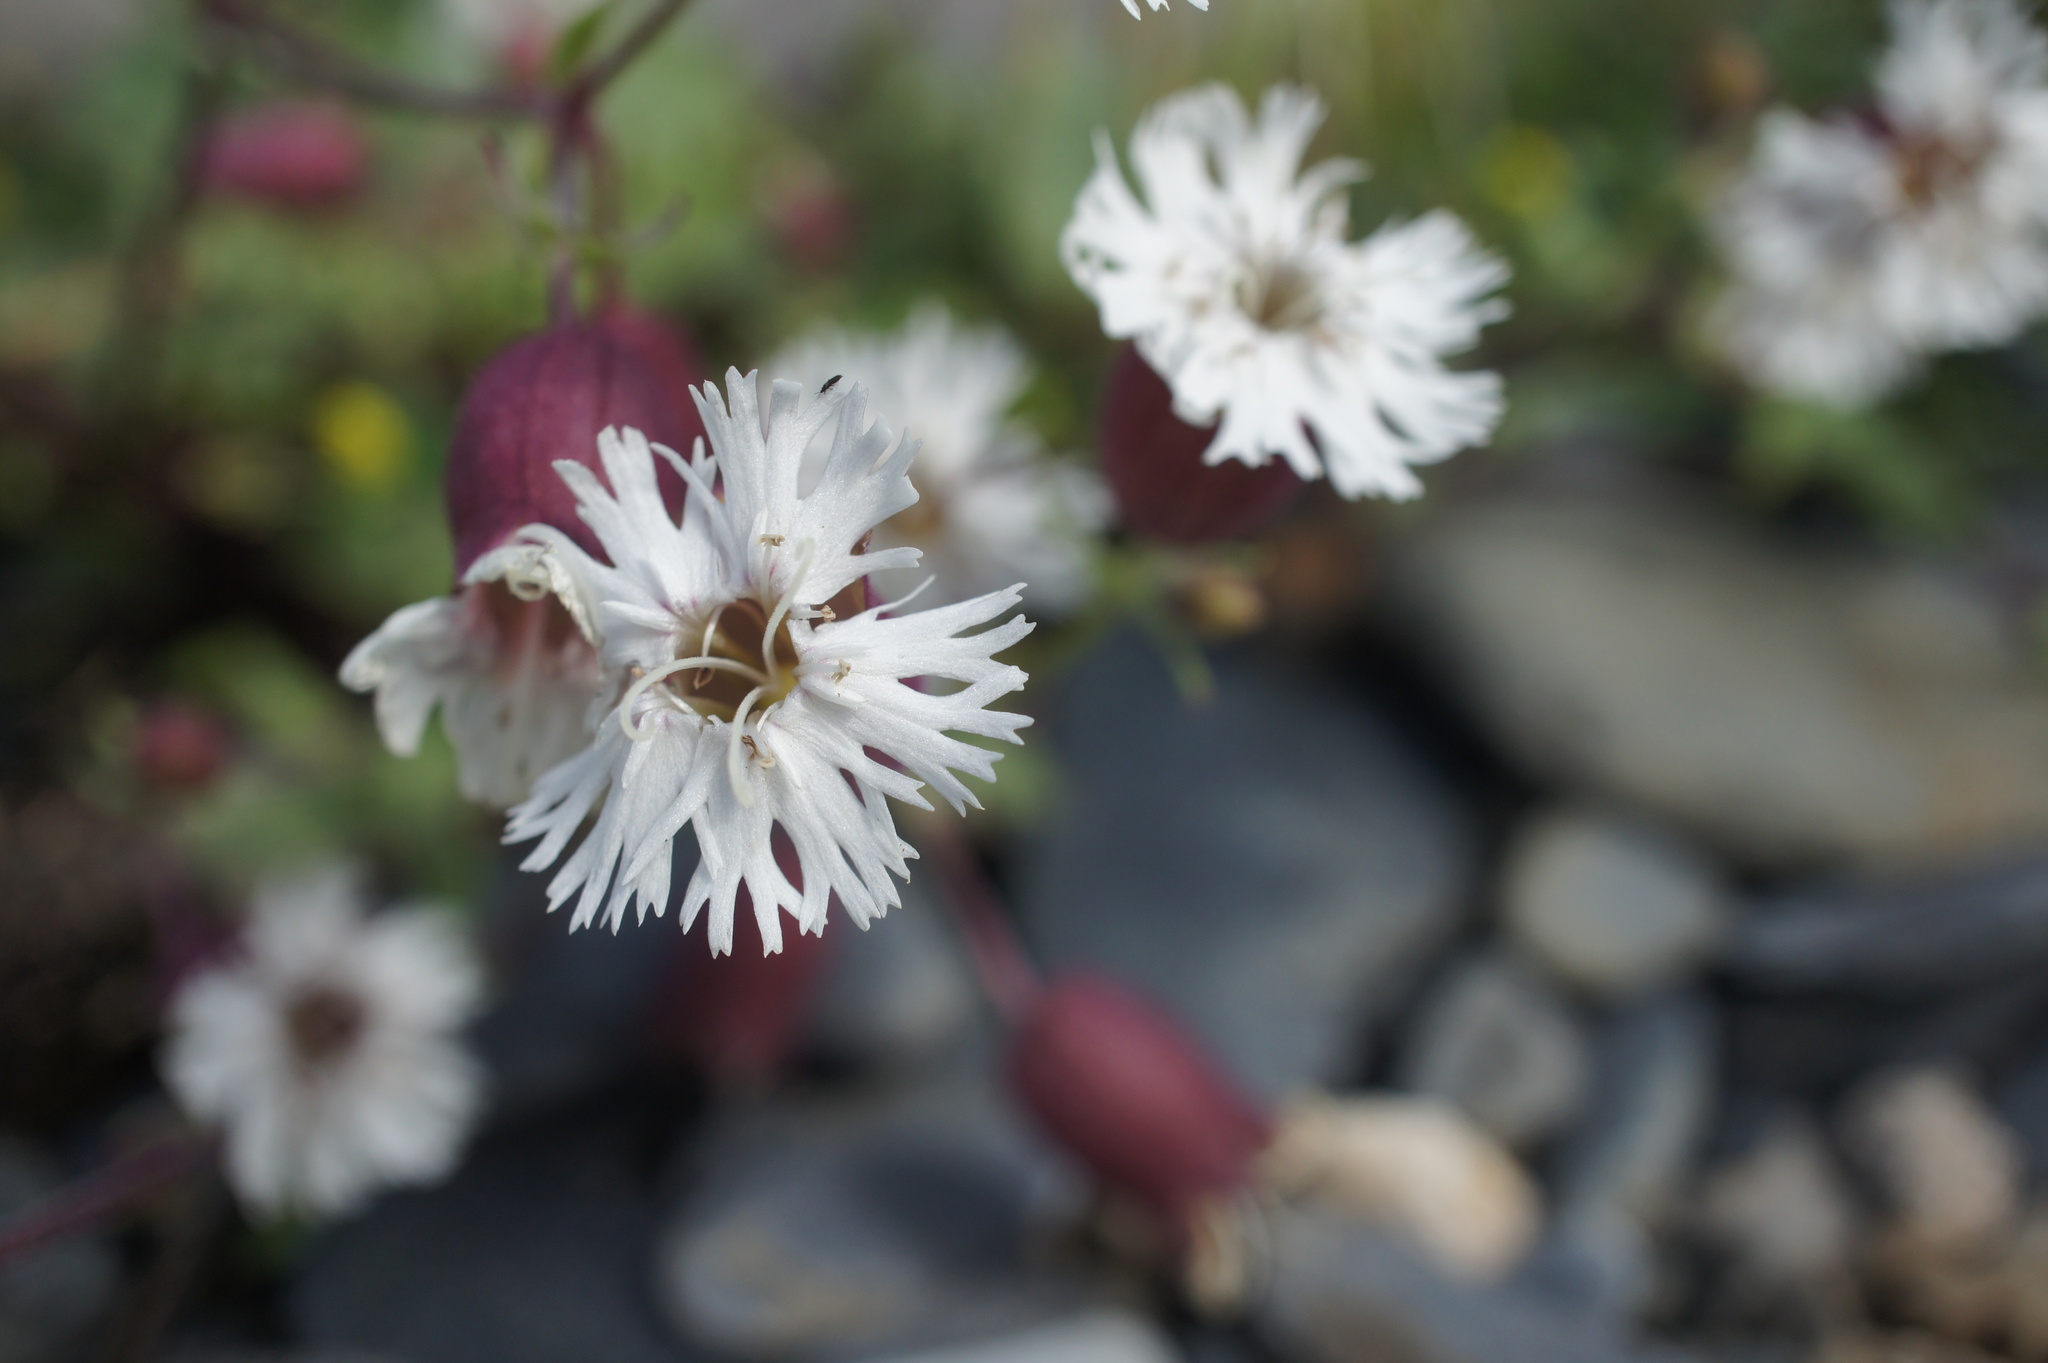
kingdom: Plantae
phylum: Tracheophyta
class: Magnoliopsida
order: Caryophyllales
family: Caryophyllaceae
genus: Silene
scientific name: Silene lacera
